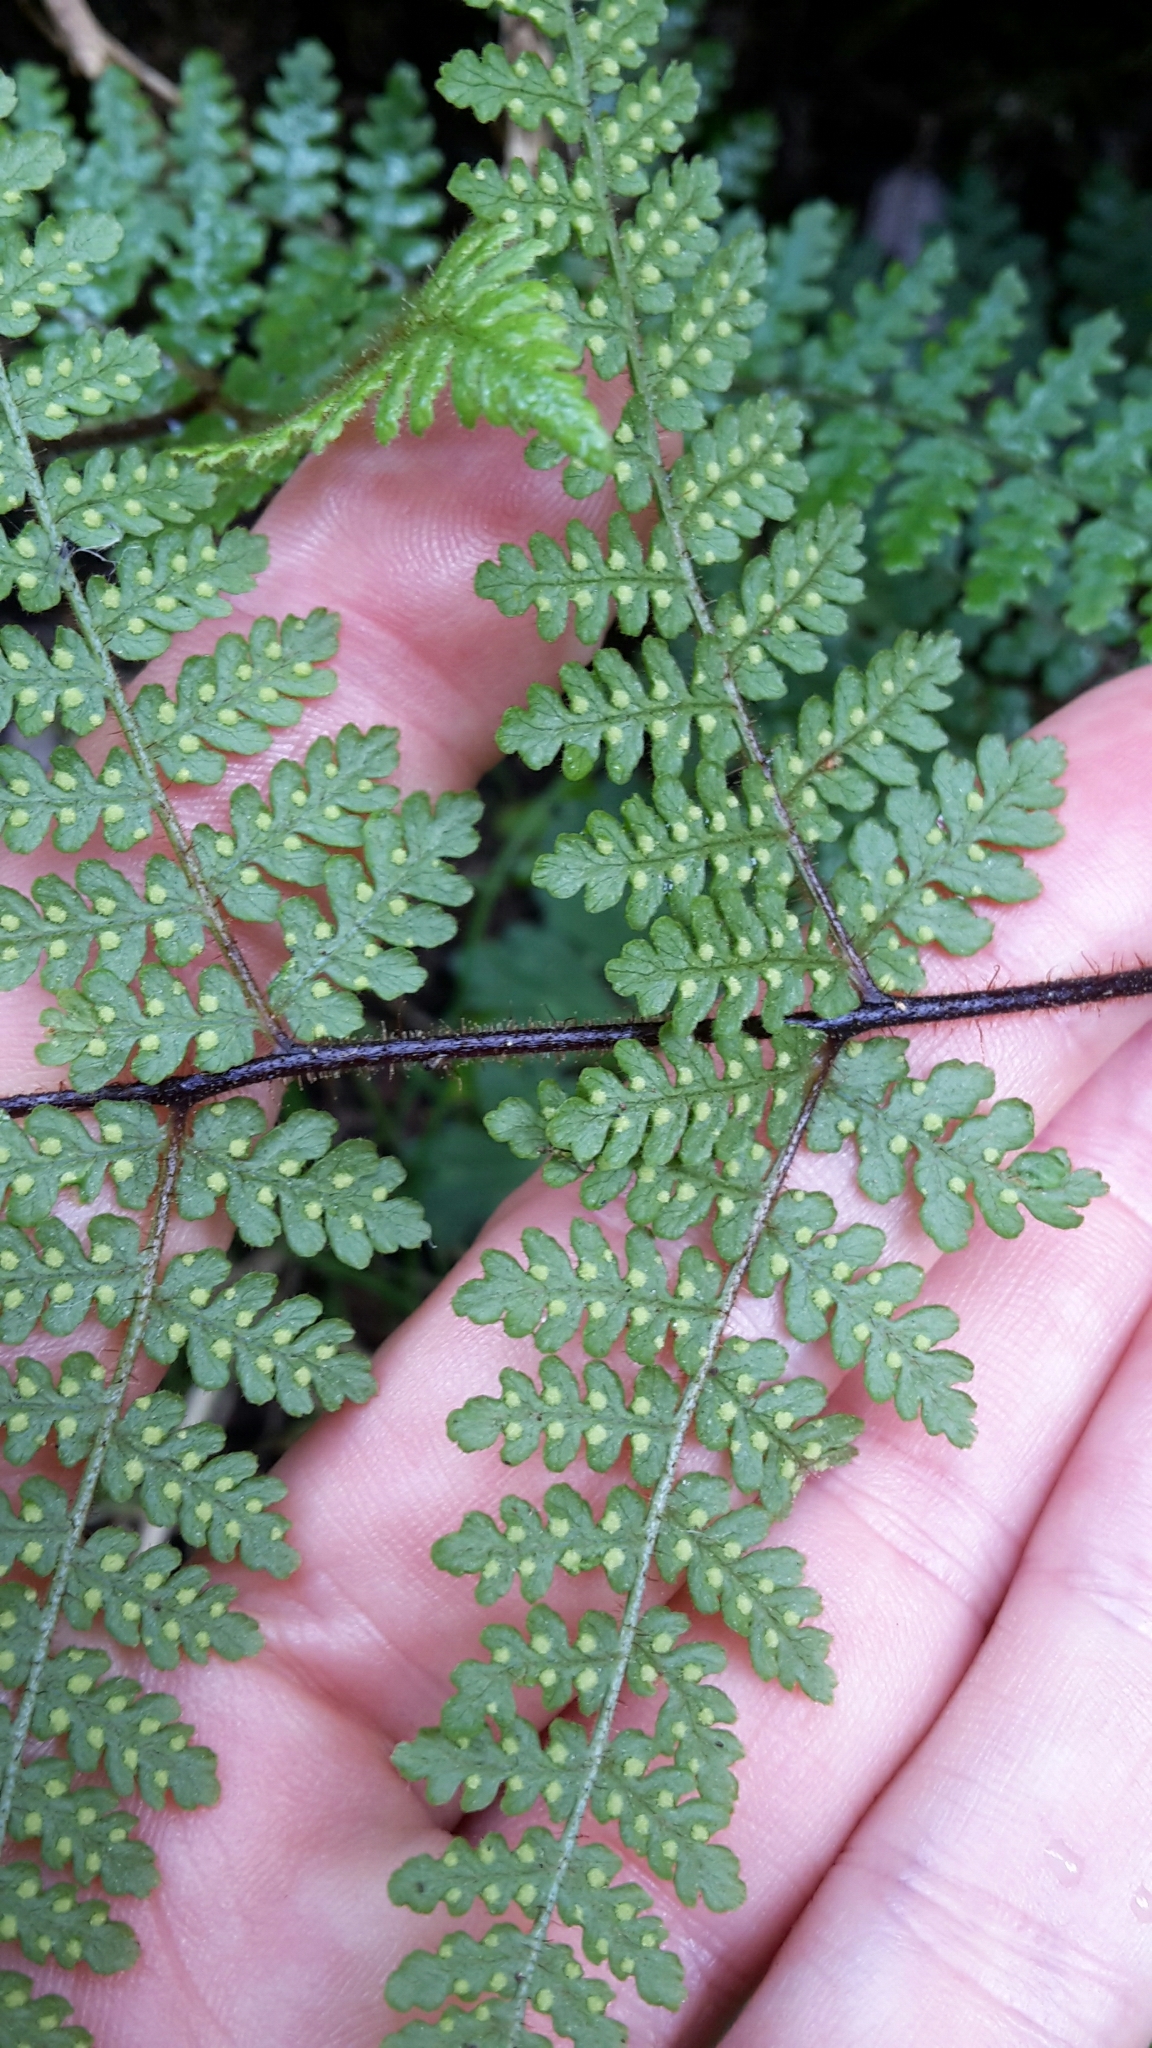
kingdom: Plantae
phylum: Tracheophyta
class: Polypodiopsida
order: Polypodiales
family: Dennstaedtiaceae
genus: Hypolepis
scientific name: Hypolepis rugosula
